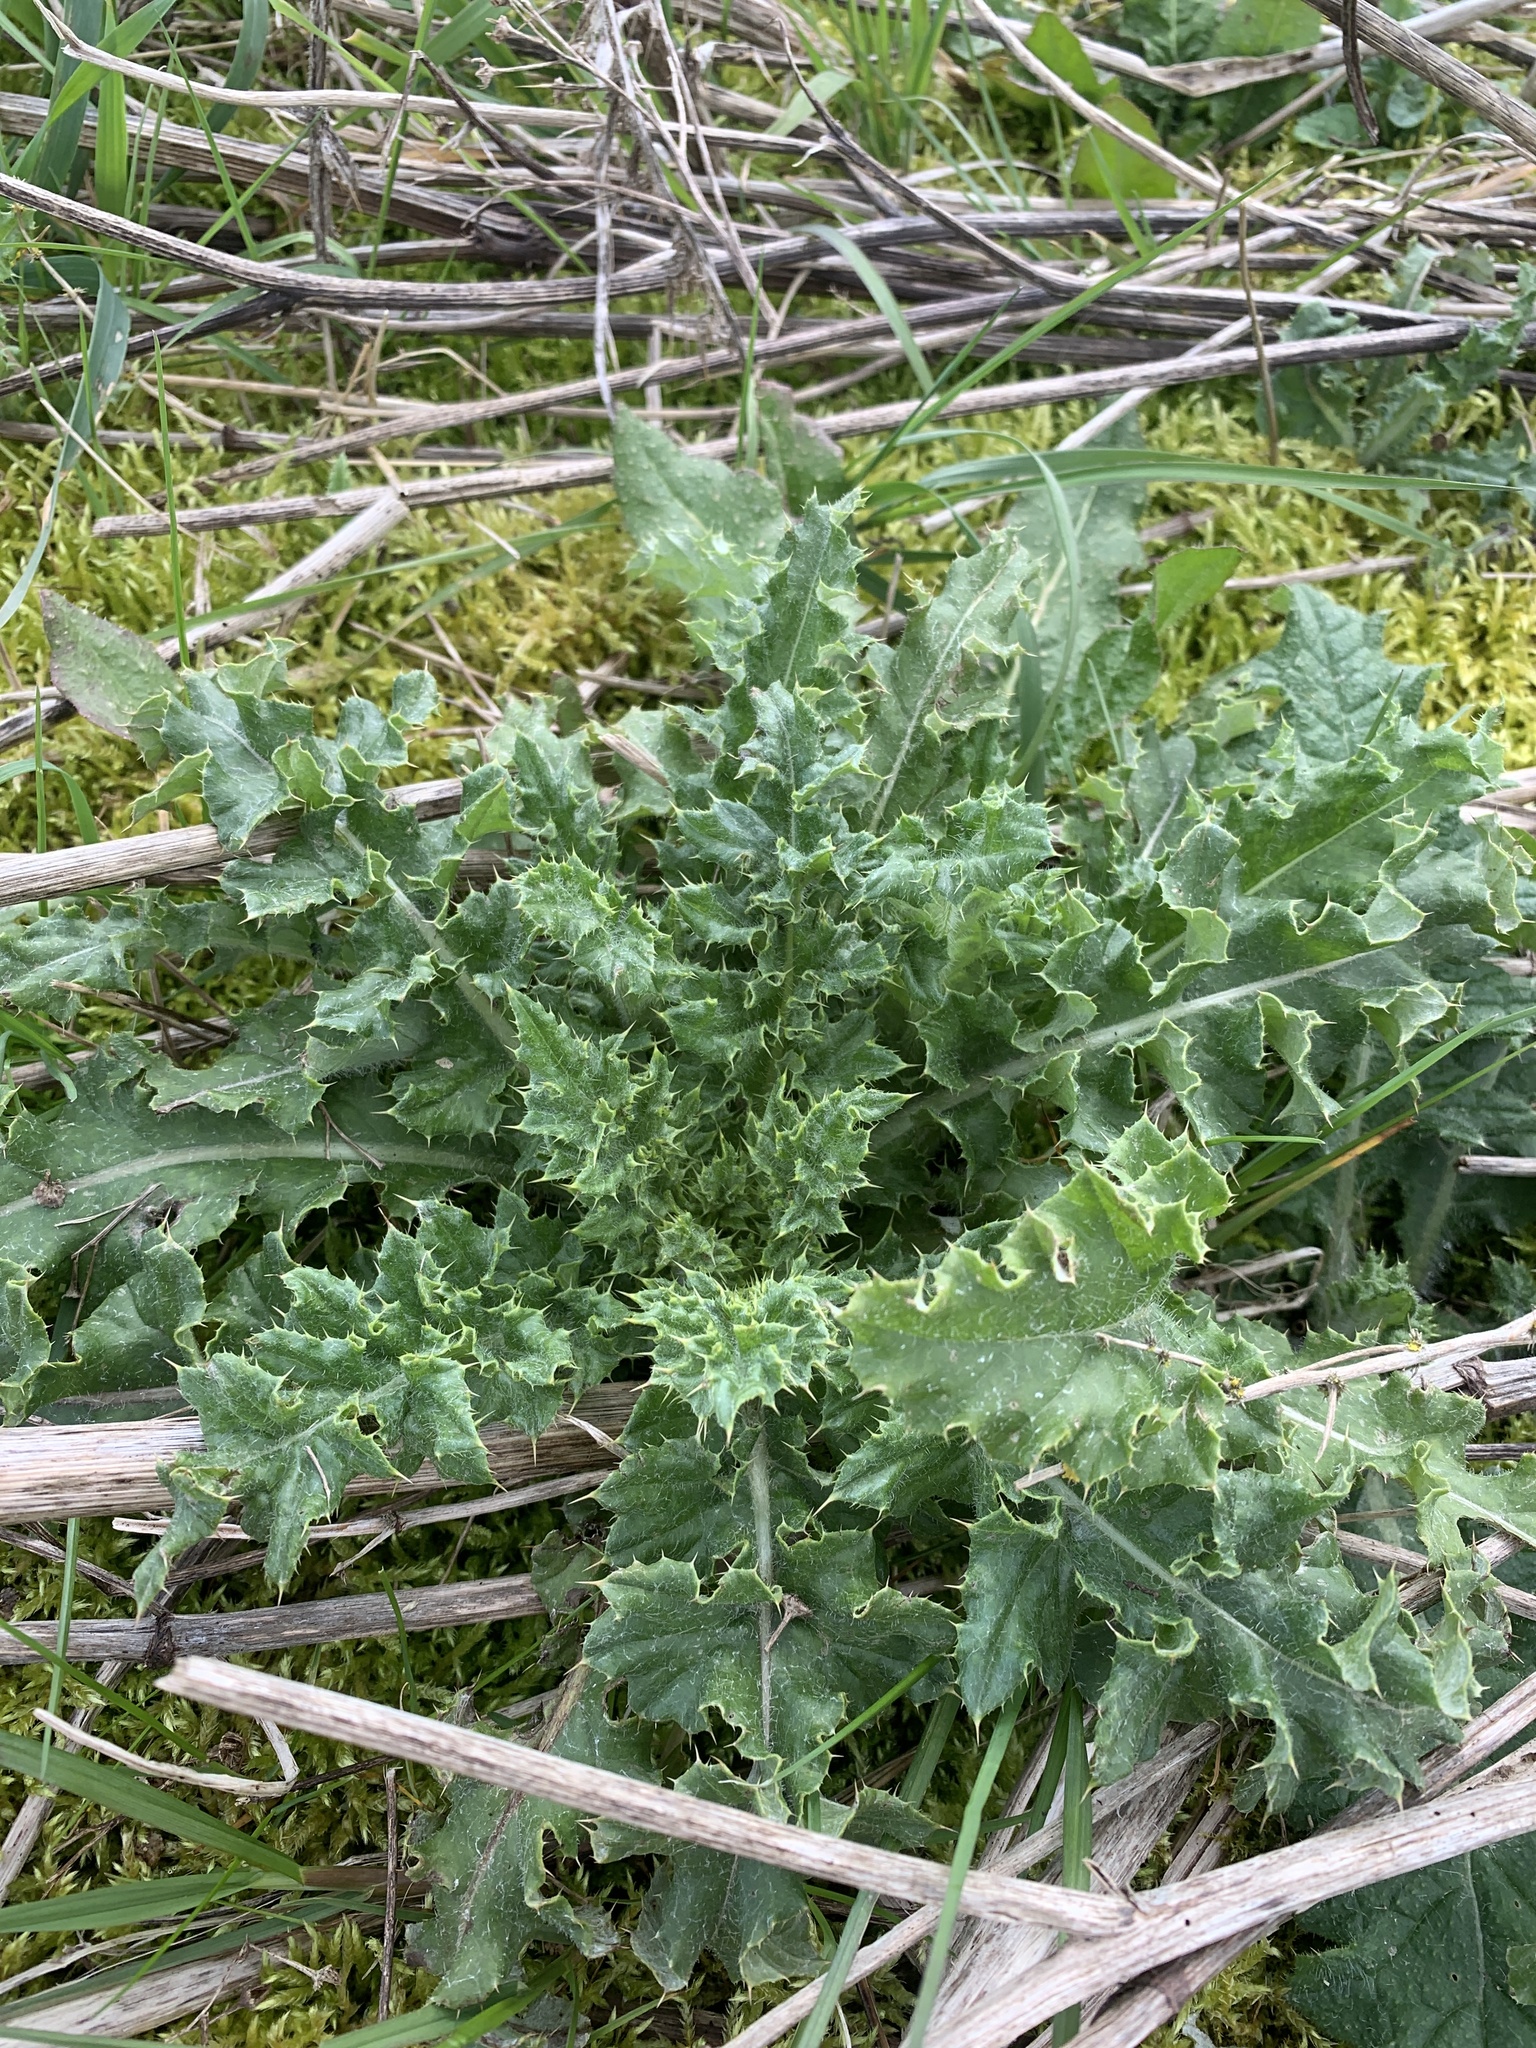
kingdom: Plantae
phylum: Tracheophyta
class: Magnoliopsida
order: Asterales
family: Asteraceae
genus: Cirsium
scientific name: Cirsium arvense
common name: Creeping thistle
